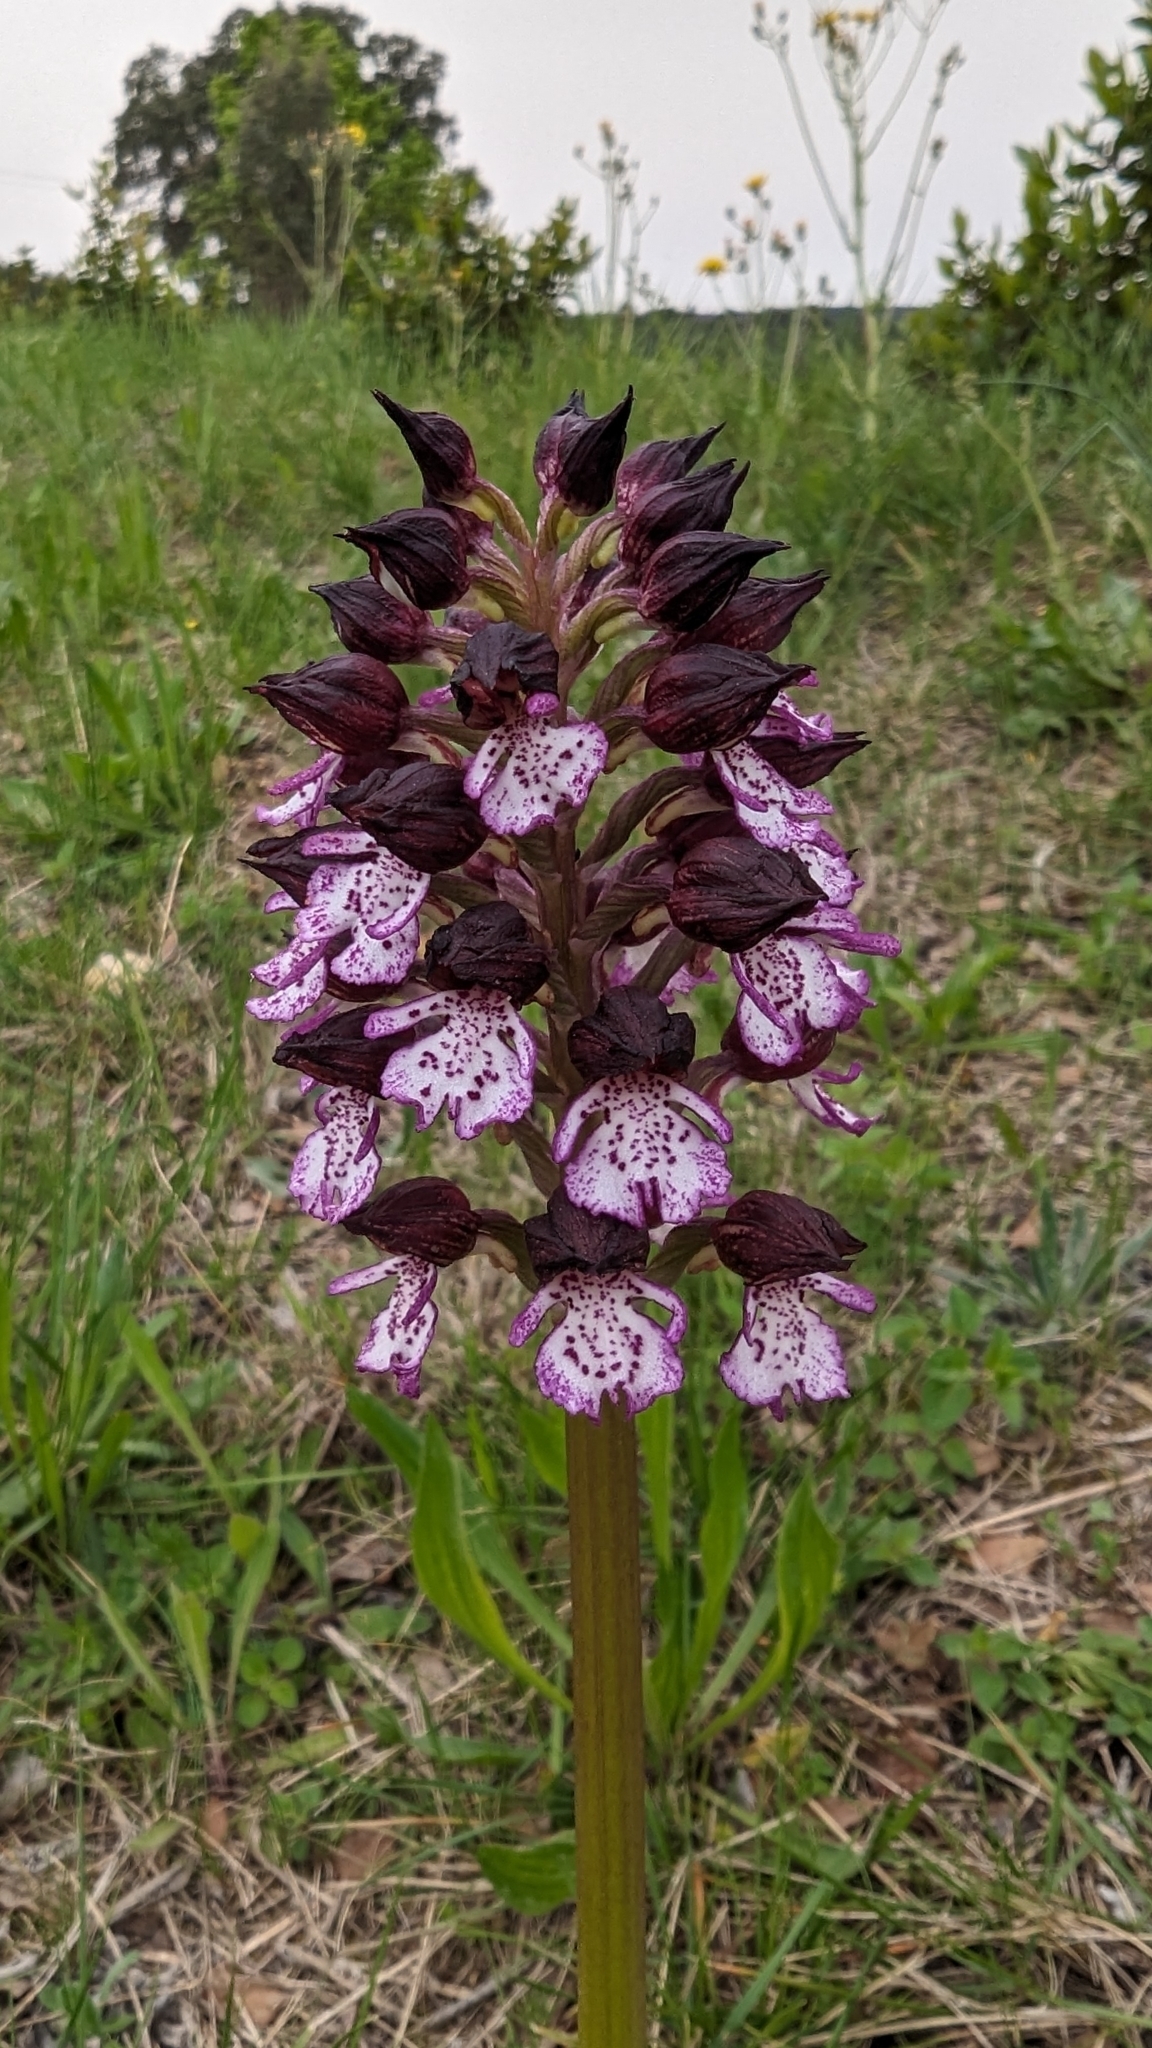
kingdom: Plantae
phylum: Tracheophyta
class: Liliopsida
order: Asparagales
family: Orchidaceae
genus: Orchis
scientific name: Orchis purpurea
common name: Lady orchid
